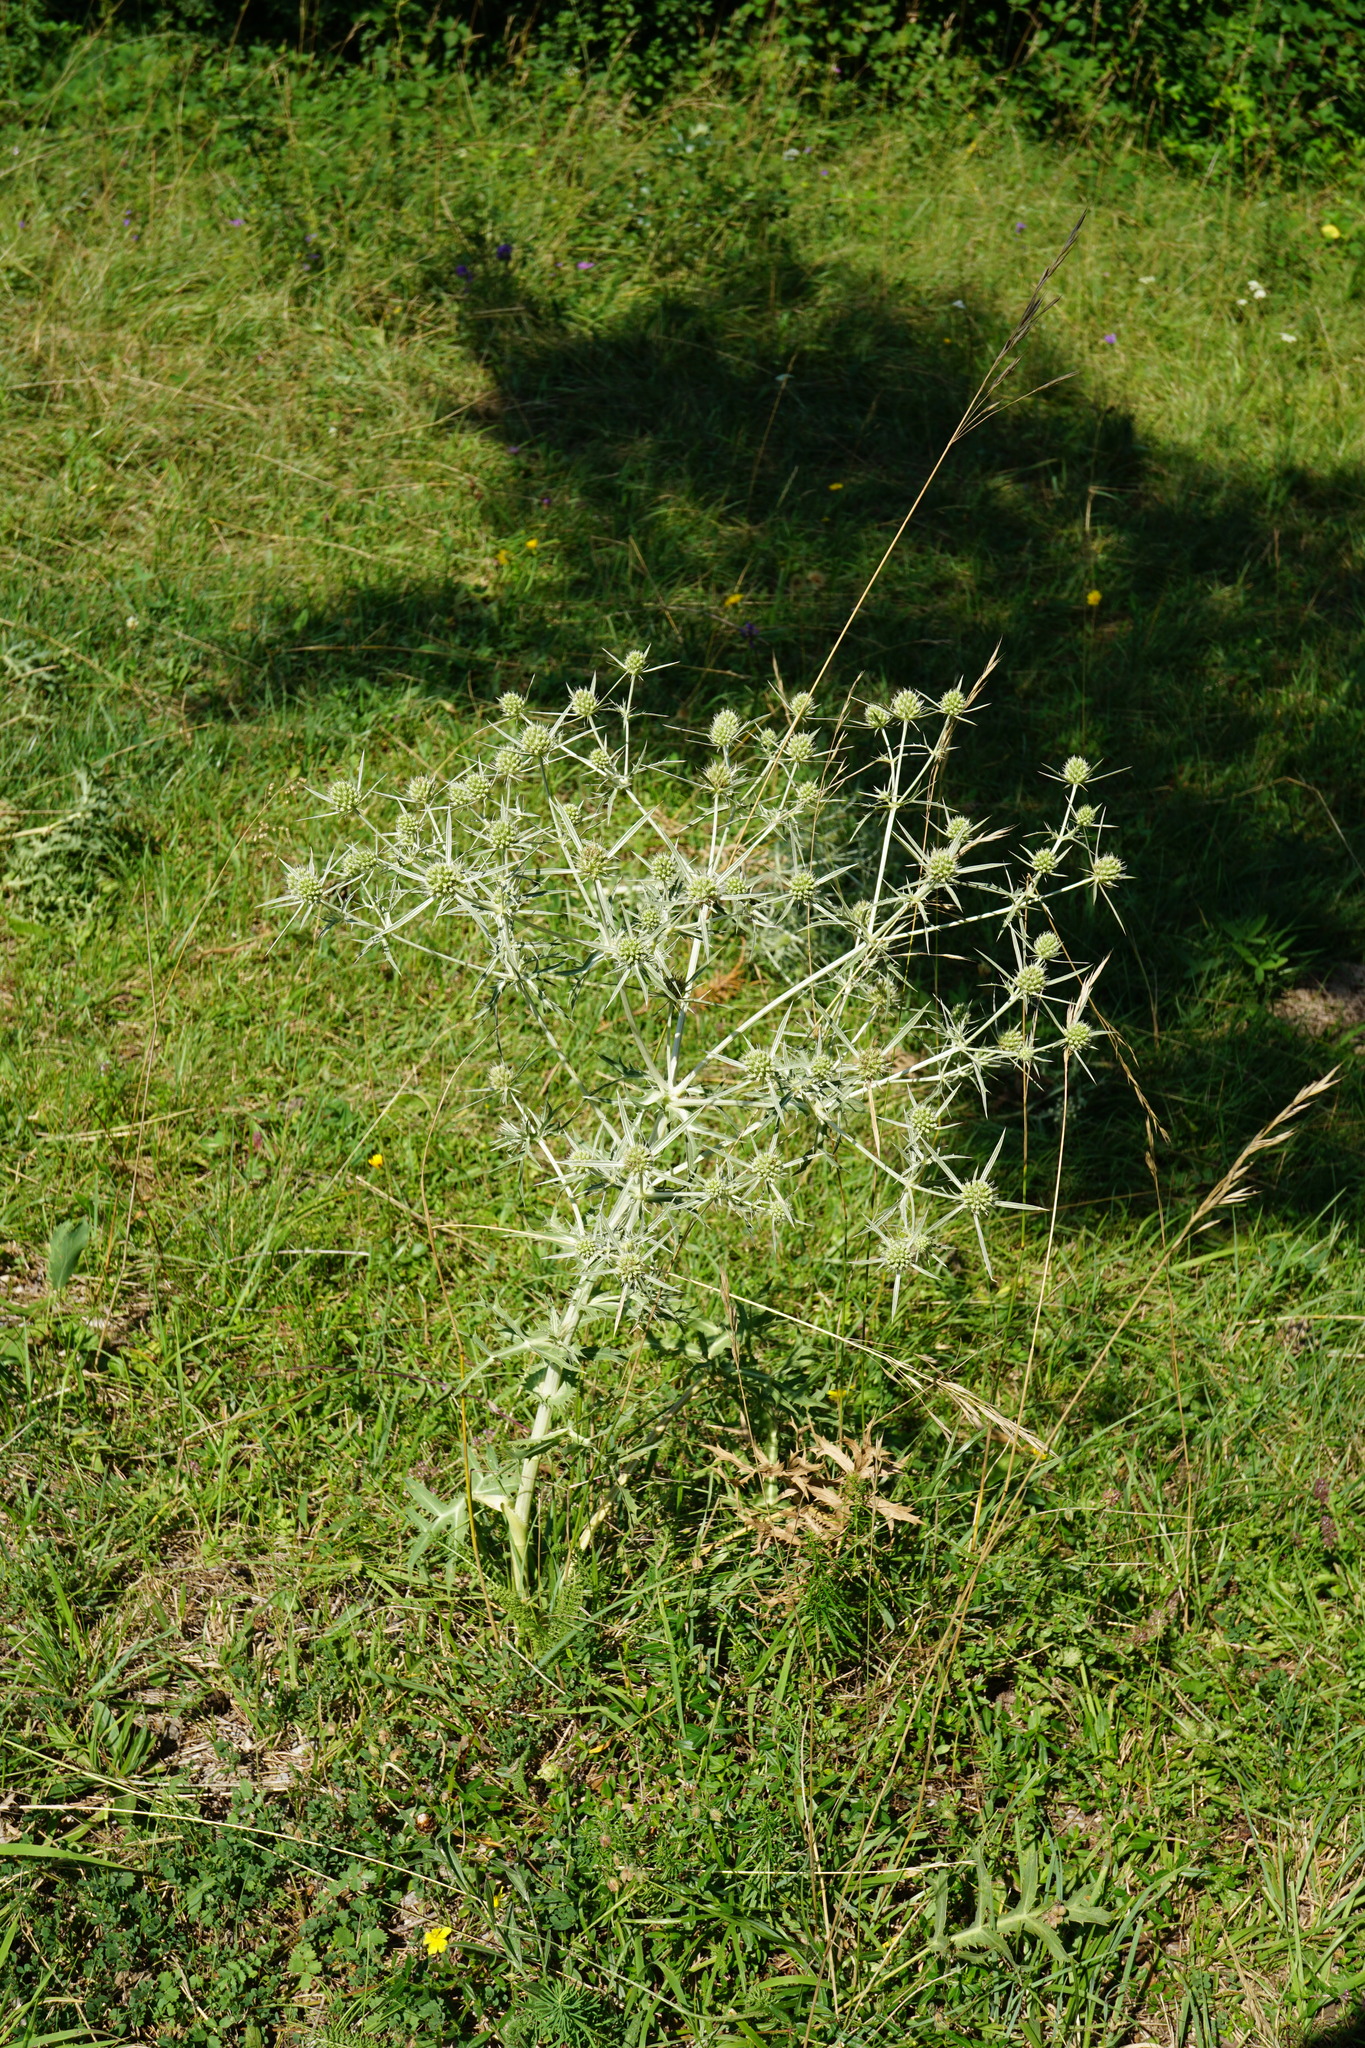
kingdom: Plantae
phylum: Tracheophyta
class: Magnoliopsida
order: Apiales
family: Apiaceae
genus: Eryngium
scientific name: Eryngium campestre
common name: Field eryngo
